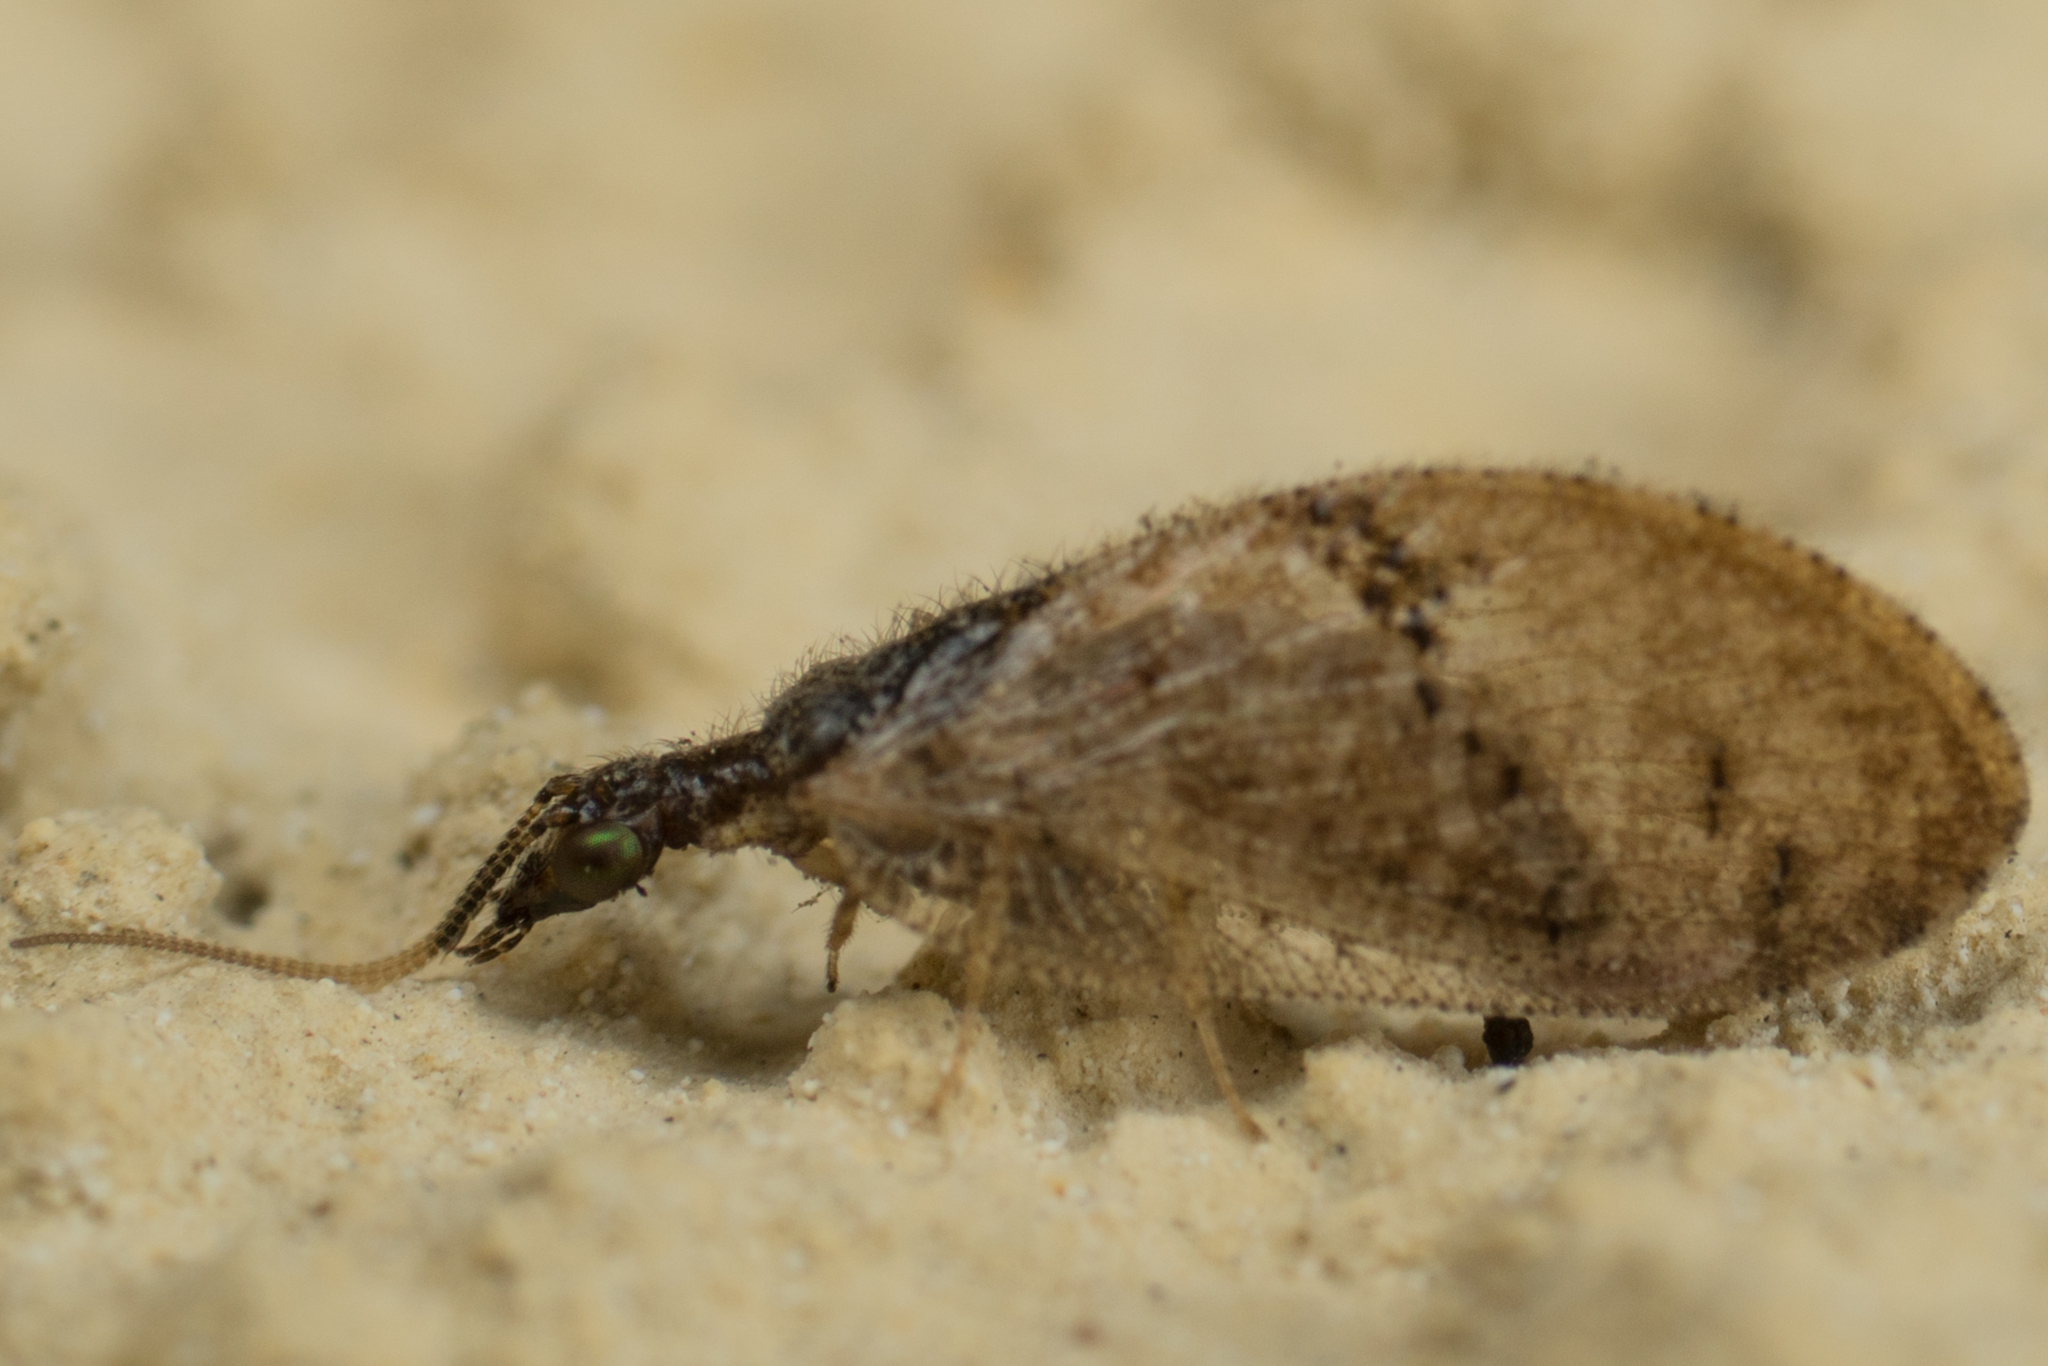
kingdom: Animalia
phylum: Arthropoda
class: Insecta
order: Neuroptera
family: Hemerobiidae
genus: Sympherobius
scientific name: Sympherobius barberi
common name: Brown lacewing
